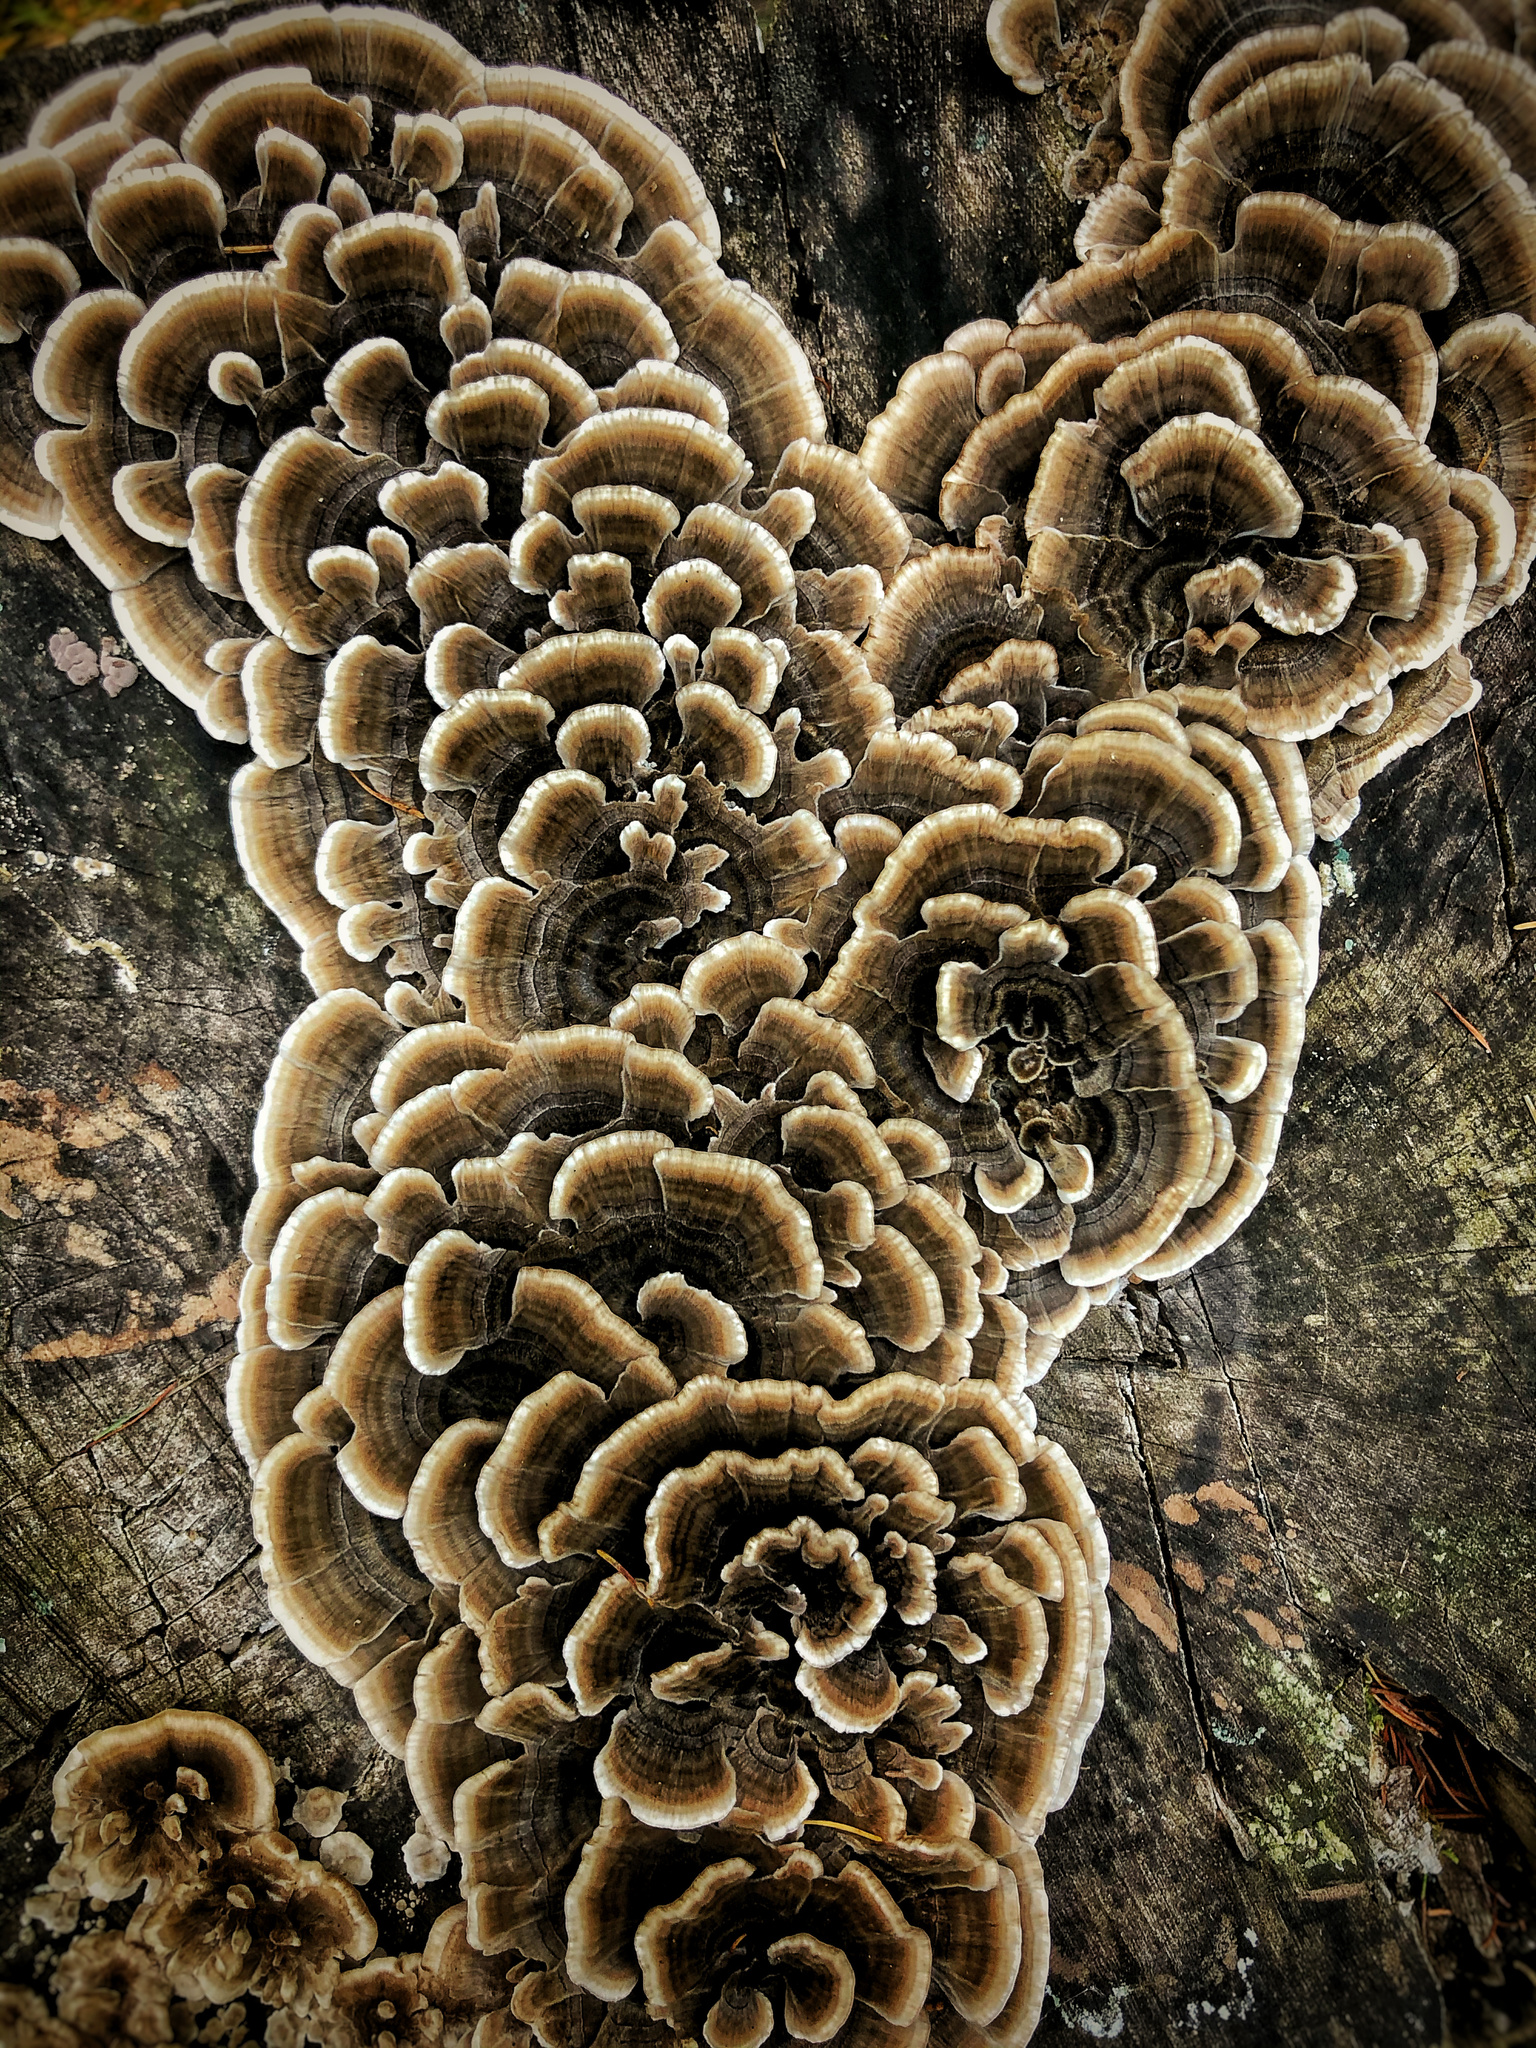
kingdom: Fungi
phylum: Basidiomycota
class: Agaricomycetes
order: Polyporales
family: Polyporaceae
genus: Trametes
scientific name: Trametes versicolor
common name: Turkeytail
